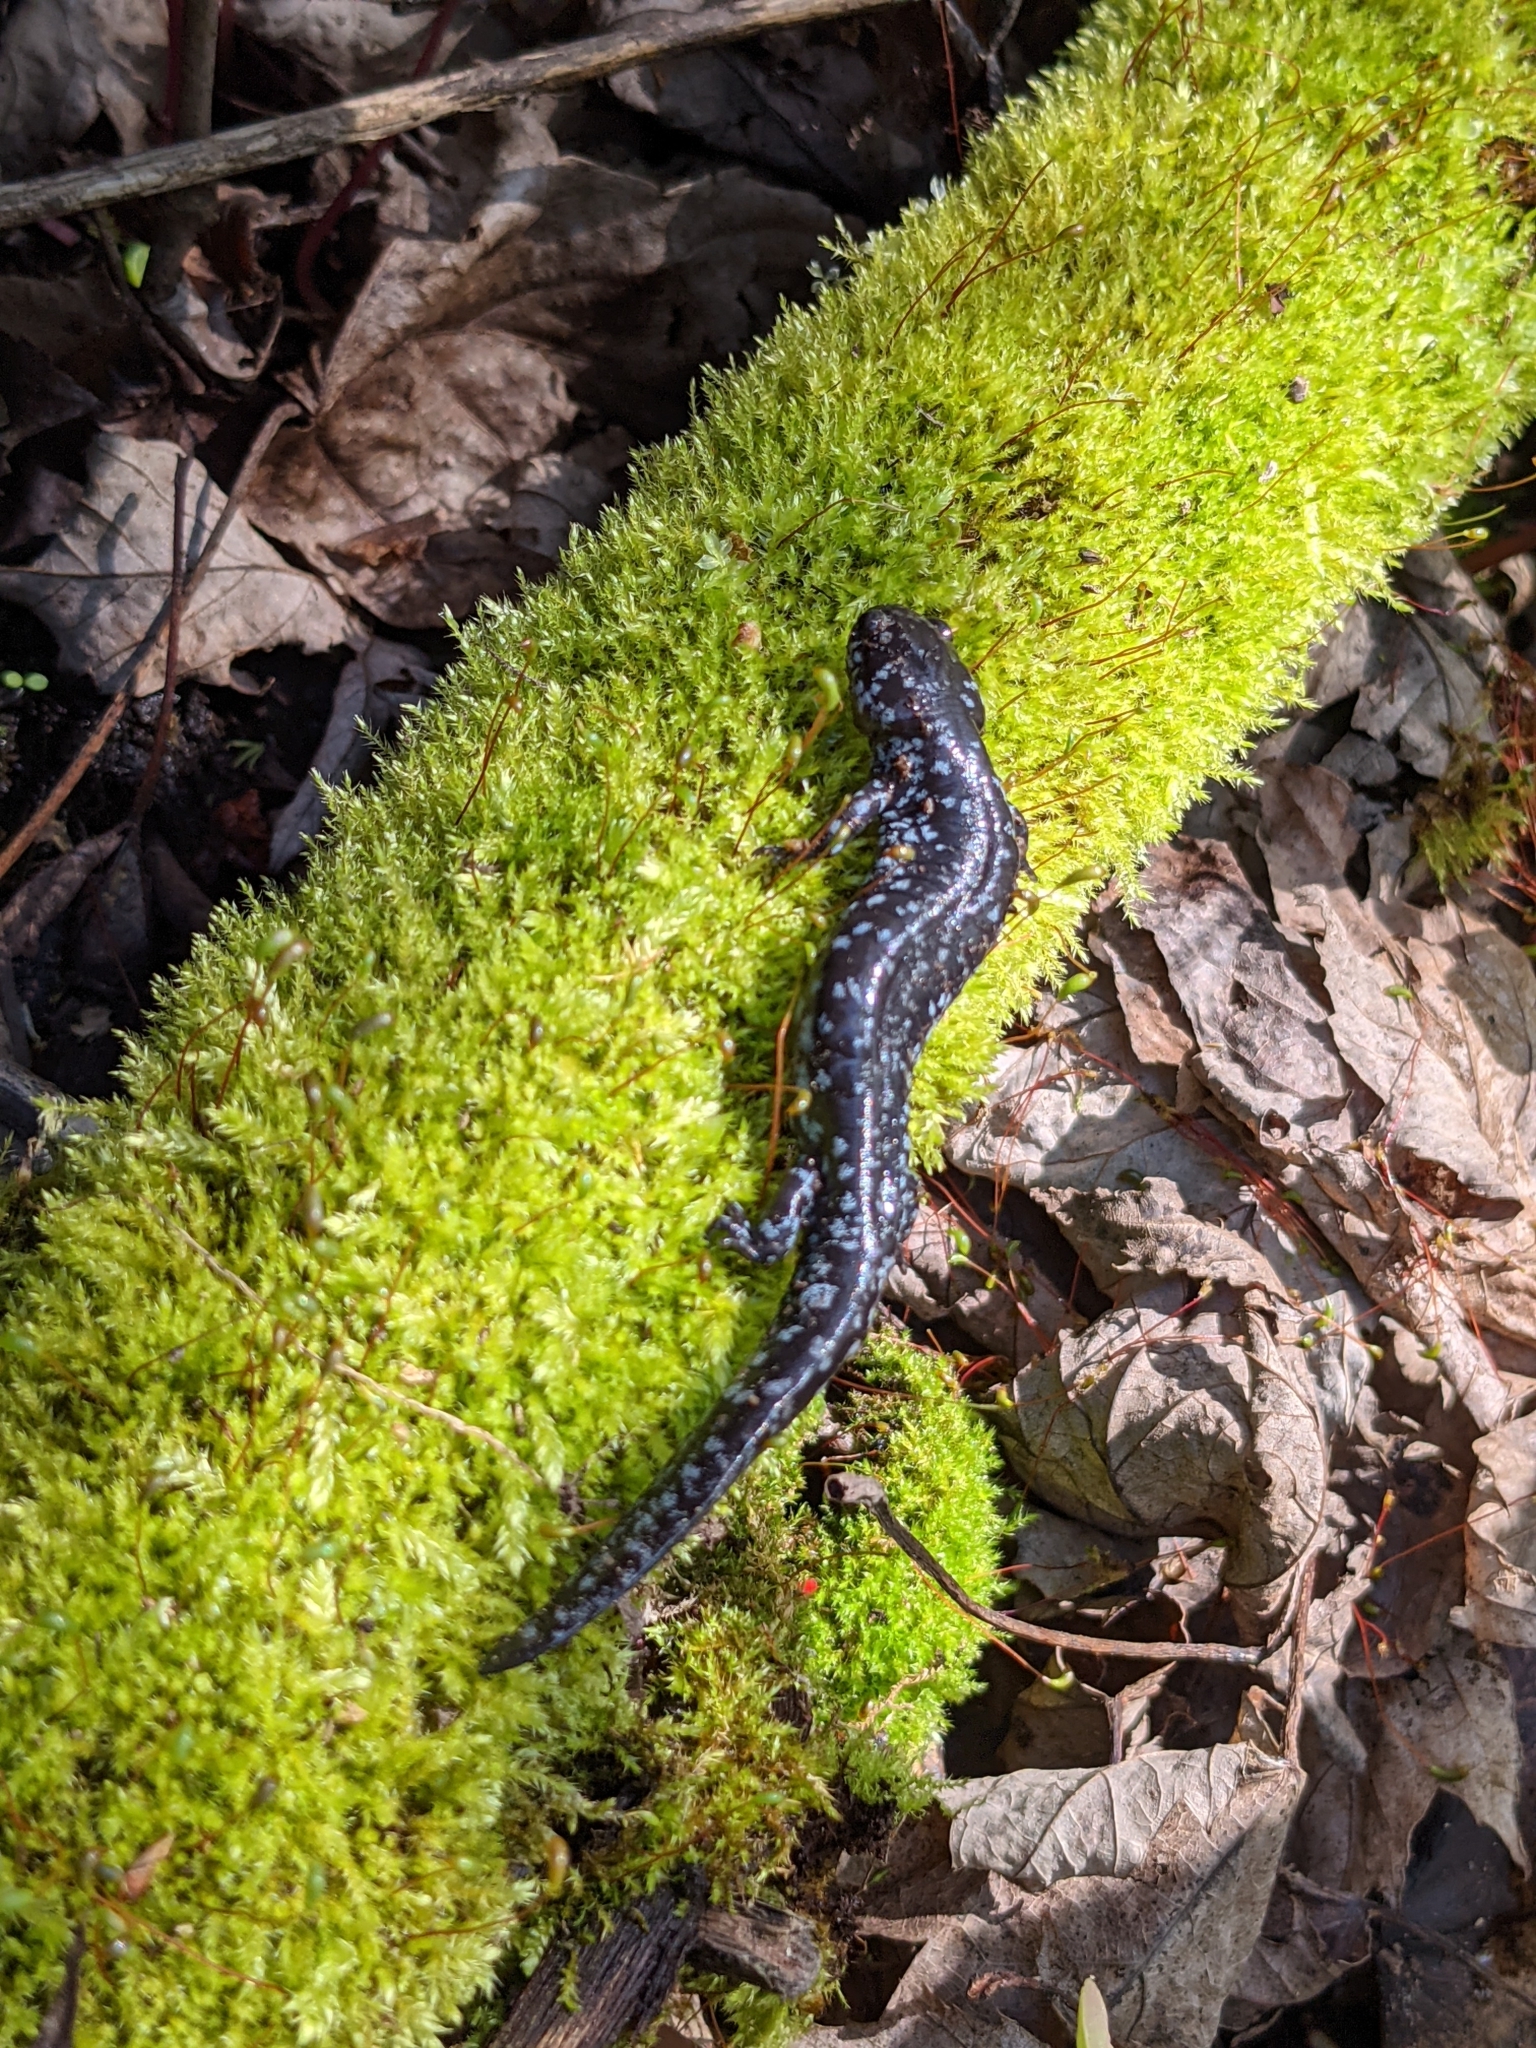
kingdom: Animalia
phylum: Chordata
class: Amphibia
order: Caudata
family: Ambystomatidae
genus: Ambystoma
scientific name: Ambystoma laterale
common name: Blue-spotted salamander
